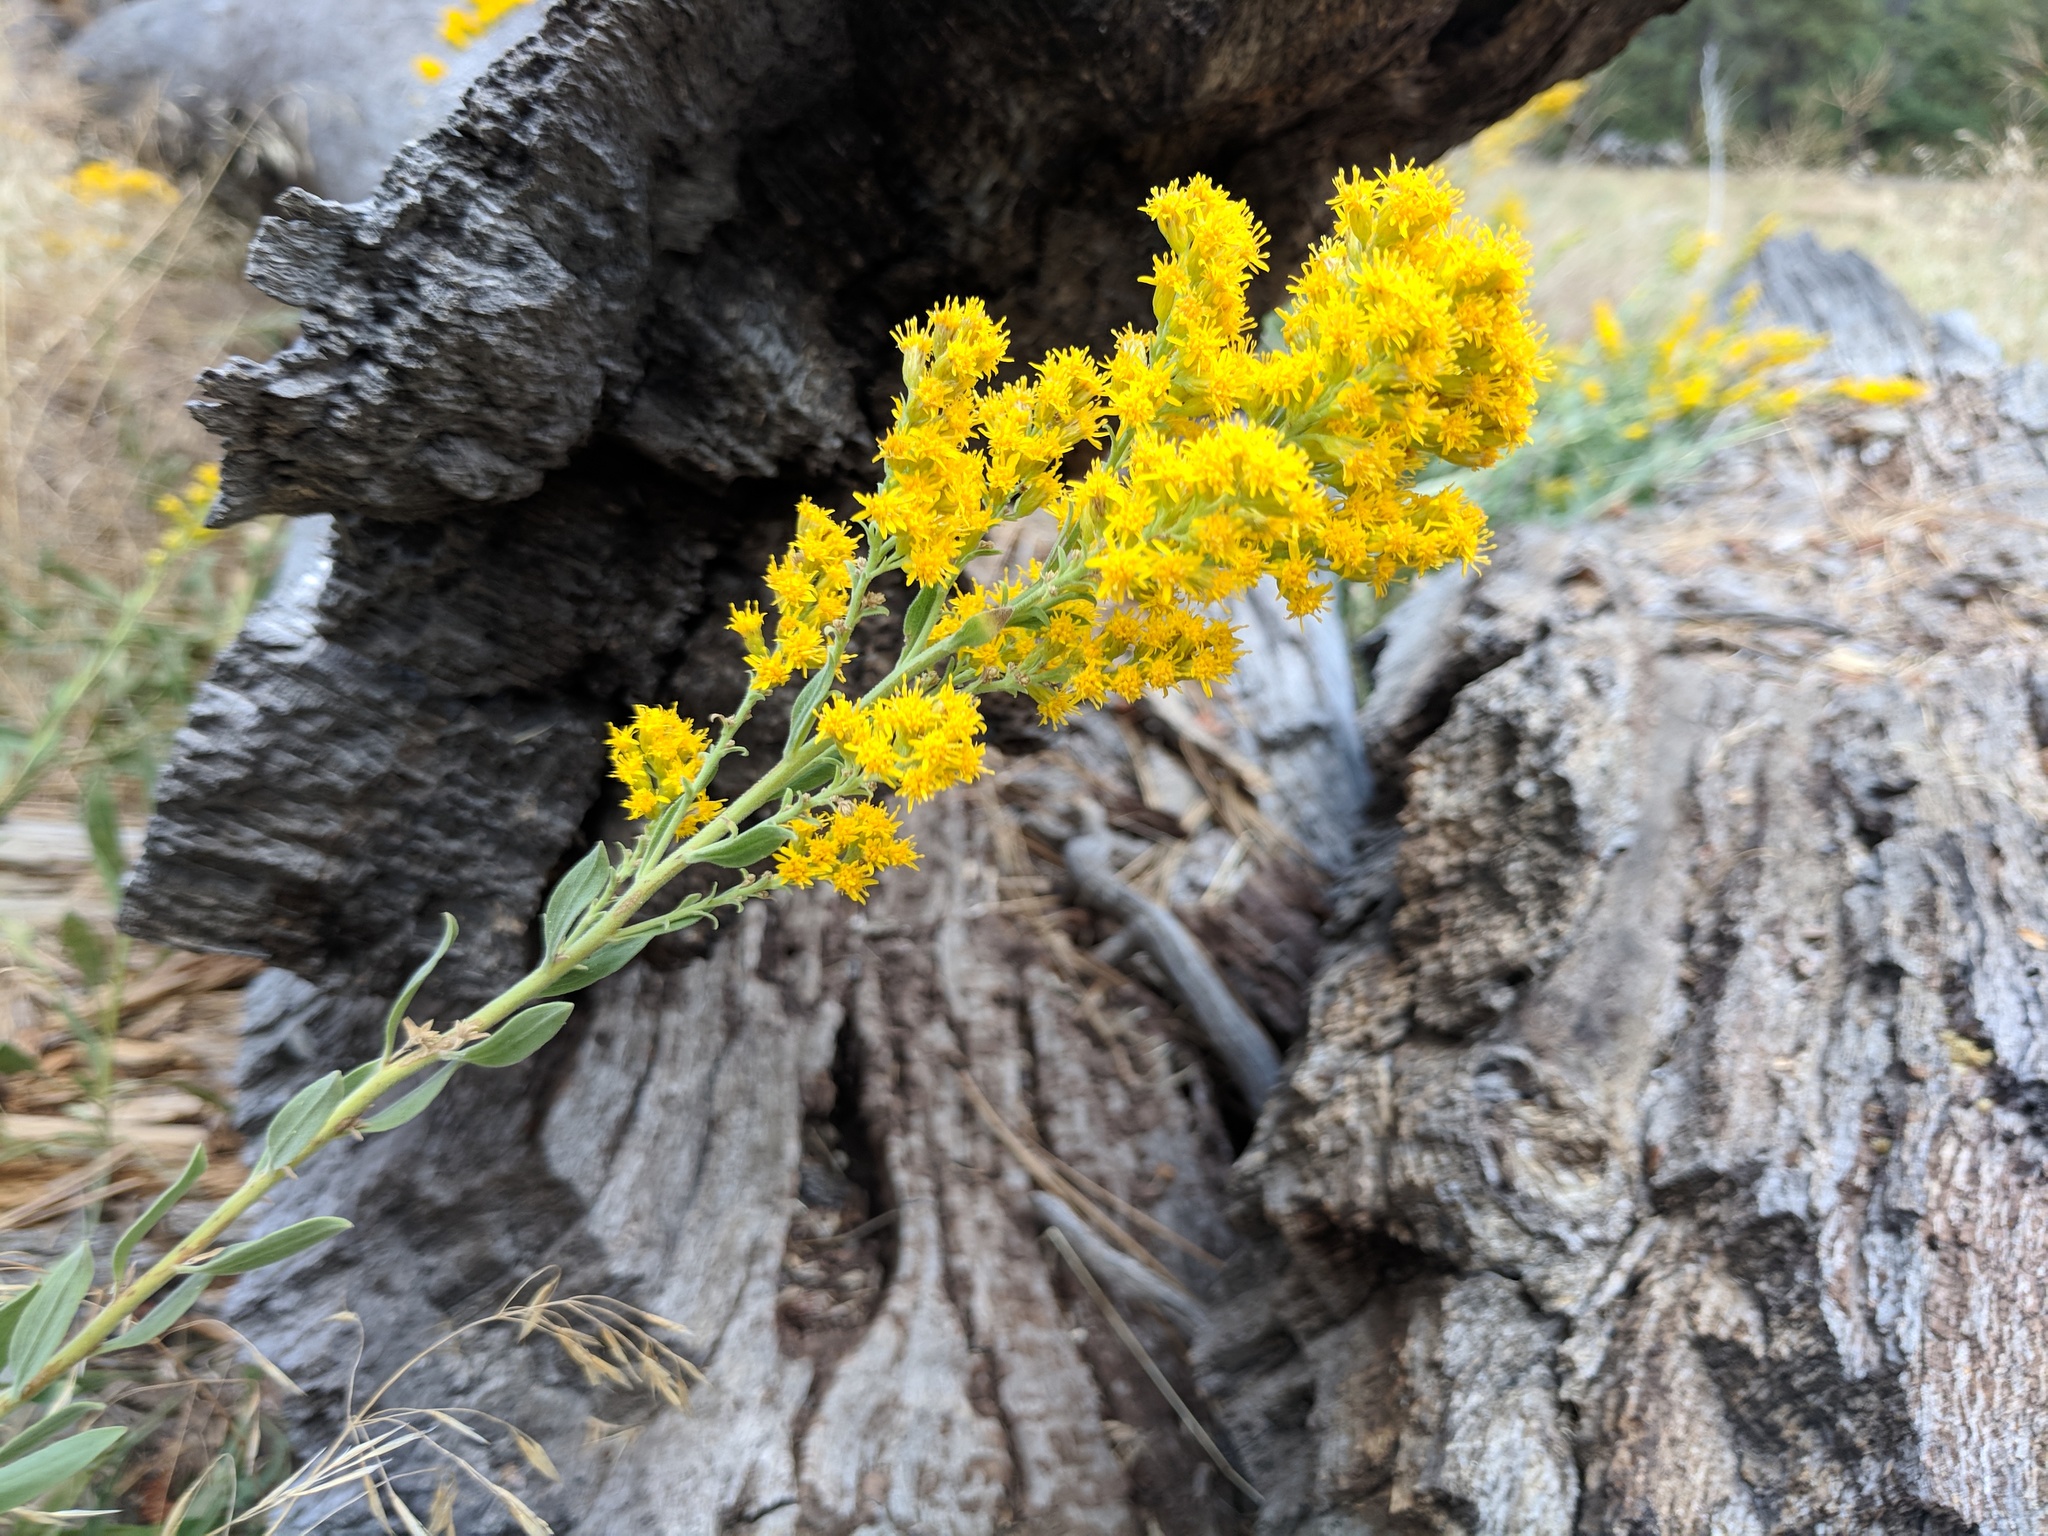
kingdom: Plantae
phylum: Tracheophyta
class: Magnoliopsida
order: Asterales
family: Asteraceae
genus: Solidago
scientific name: Solidago californica
